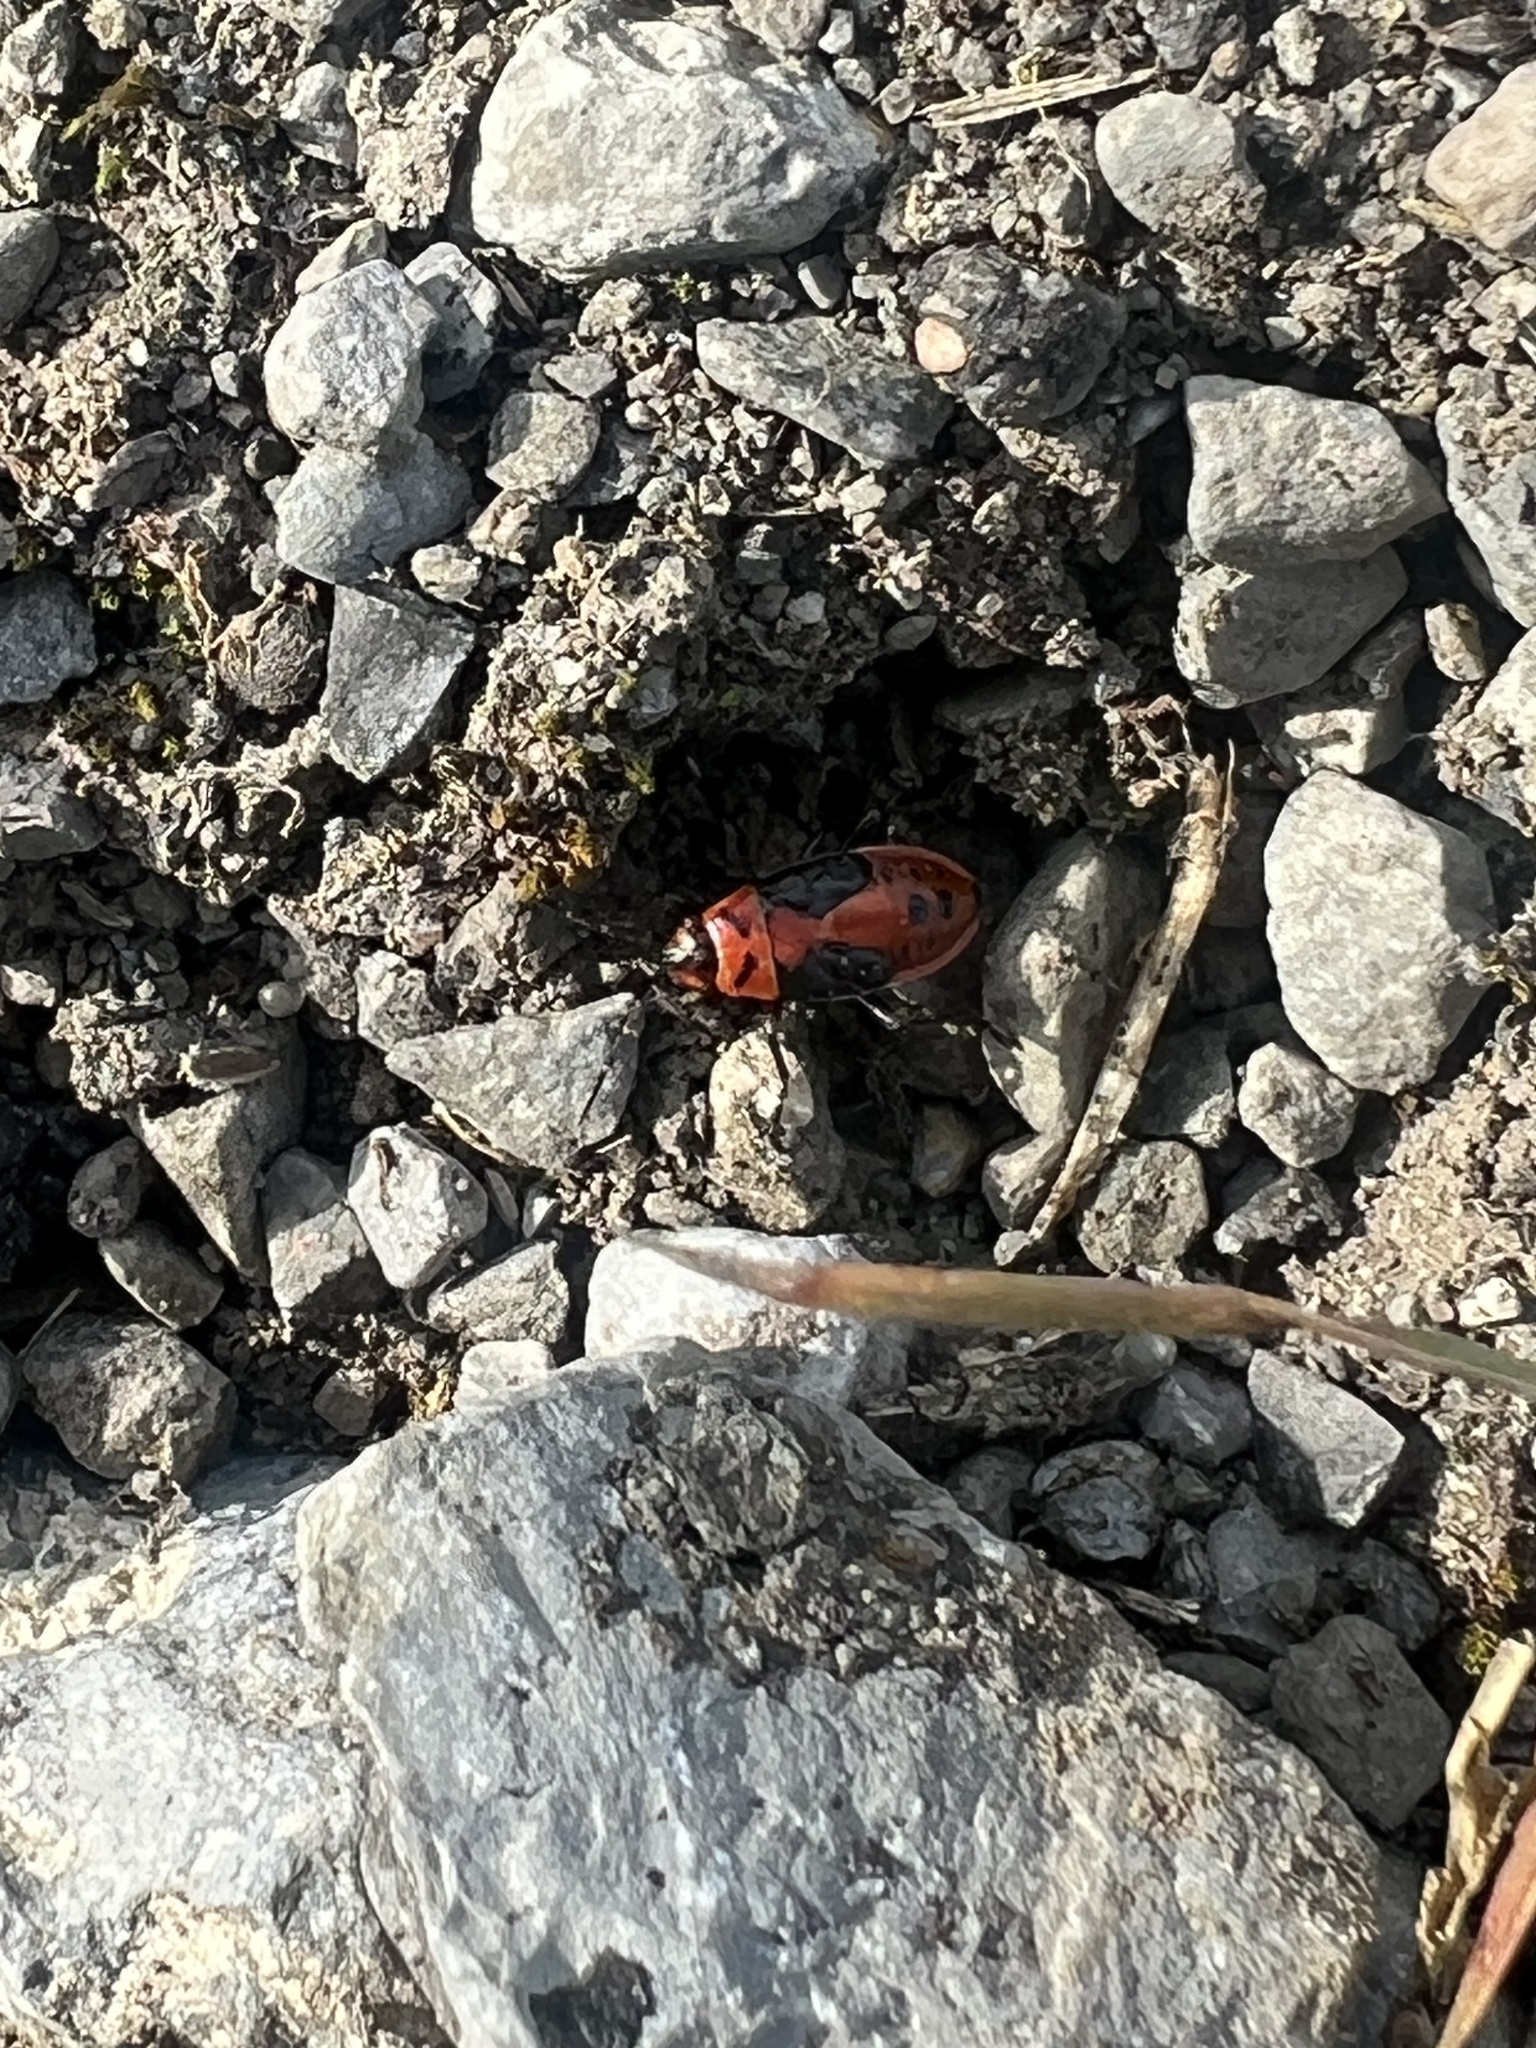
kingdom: Animalia
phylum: Arthropoda
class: Insecta
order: Hemiptera
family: Lygaeidae
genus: Lygaeus
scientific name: Lygaeus kalmii
